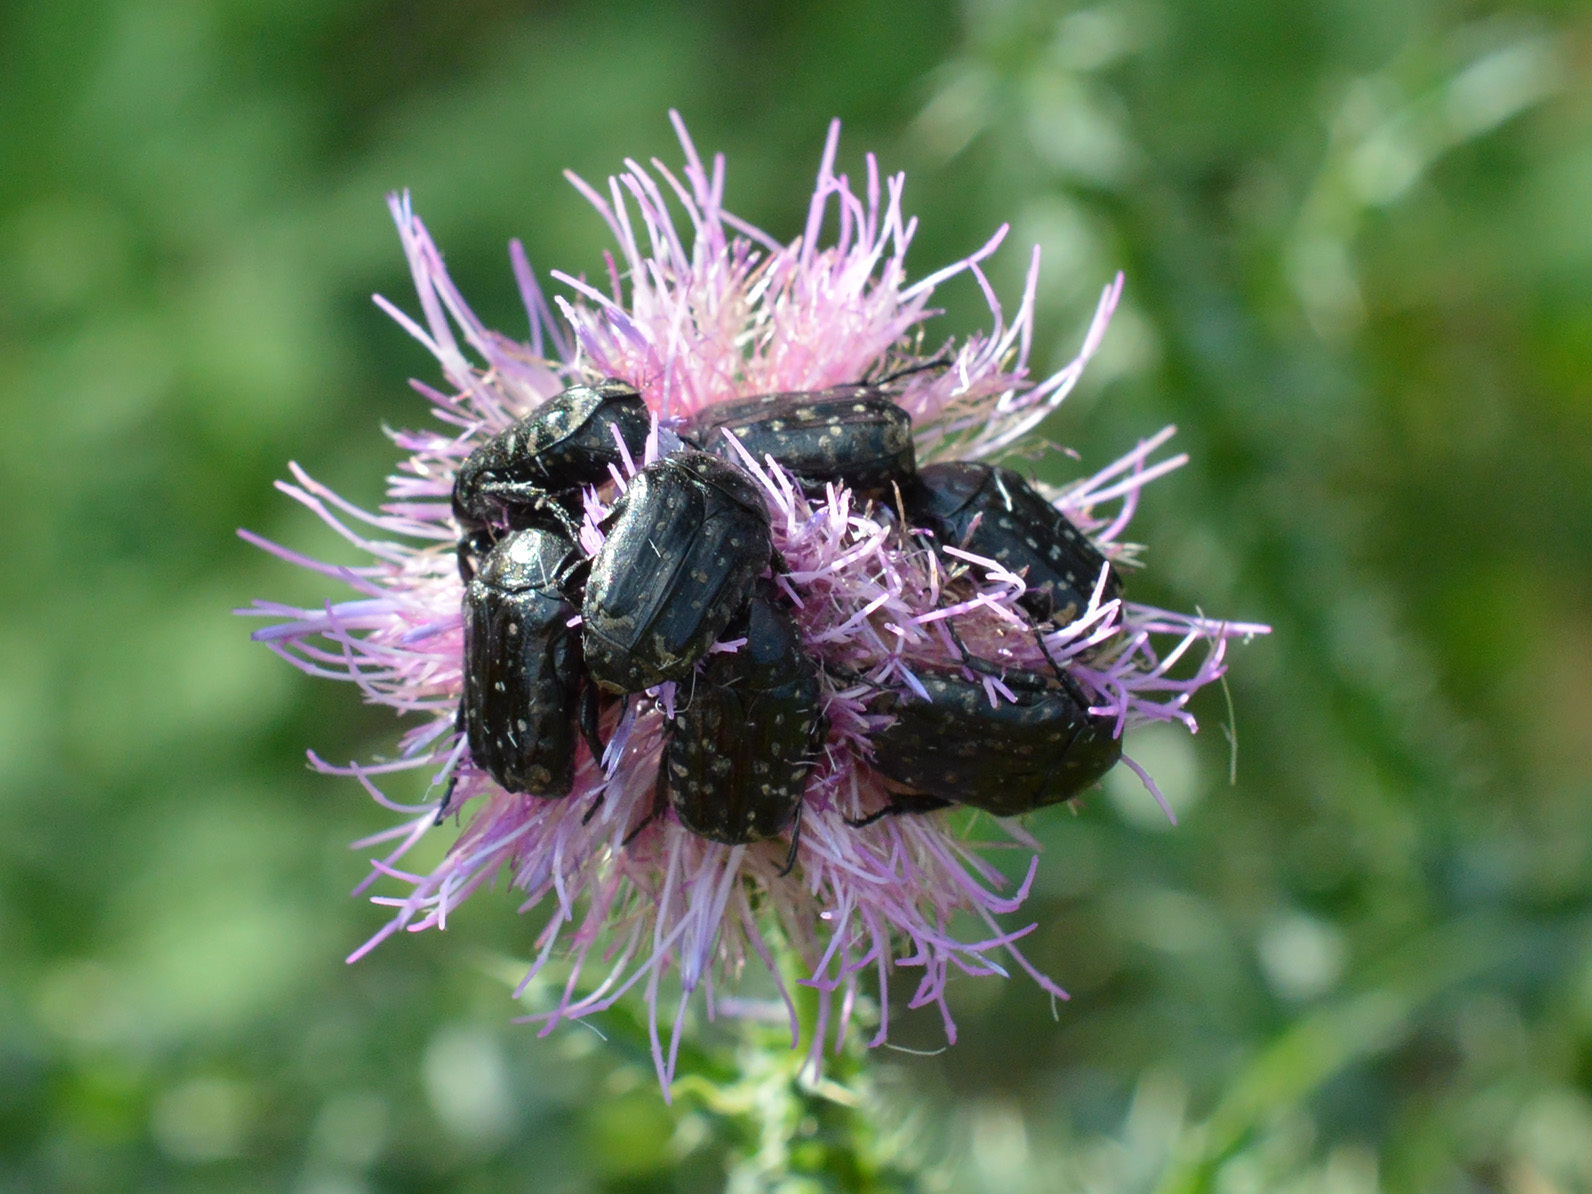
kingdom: Animalia
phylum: Arthropoda
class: Insecta
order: Coleoptera
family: Scarabaeidae
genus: Oxythyrea
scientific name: Oxythyrea funesta
